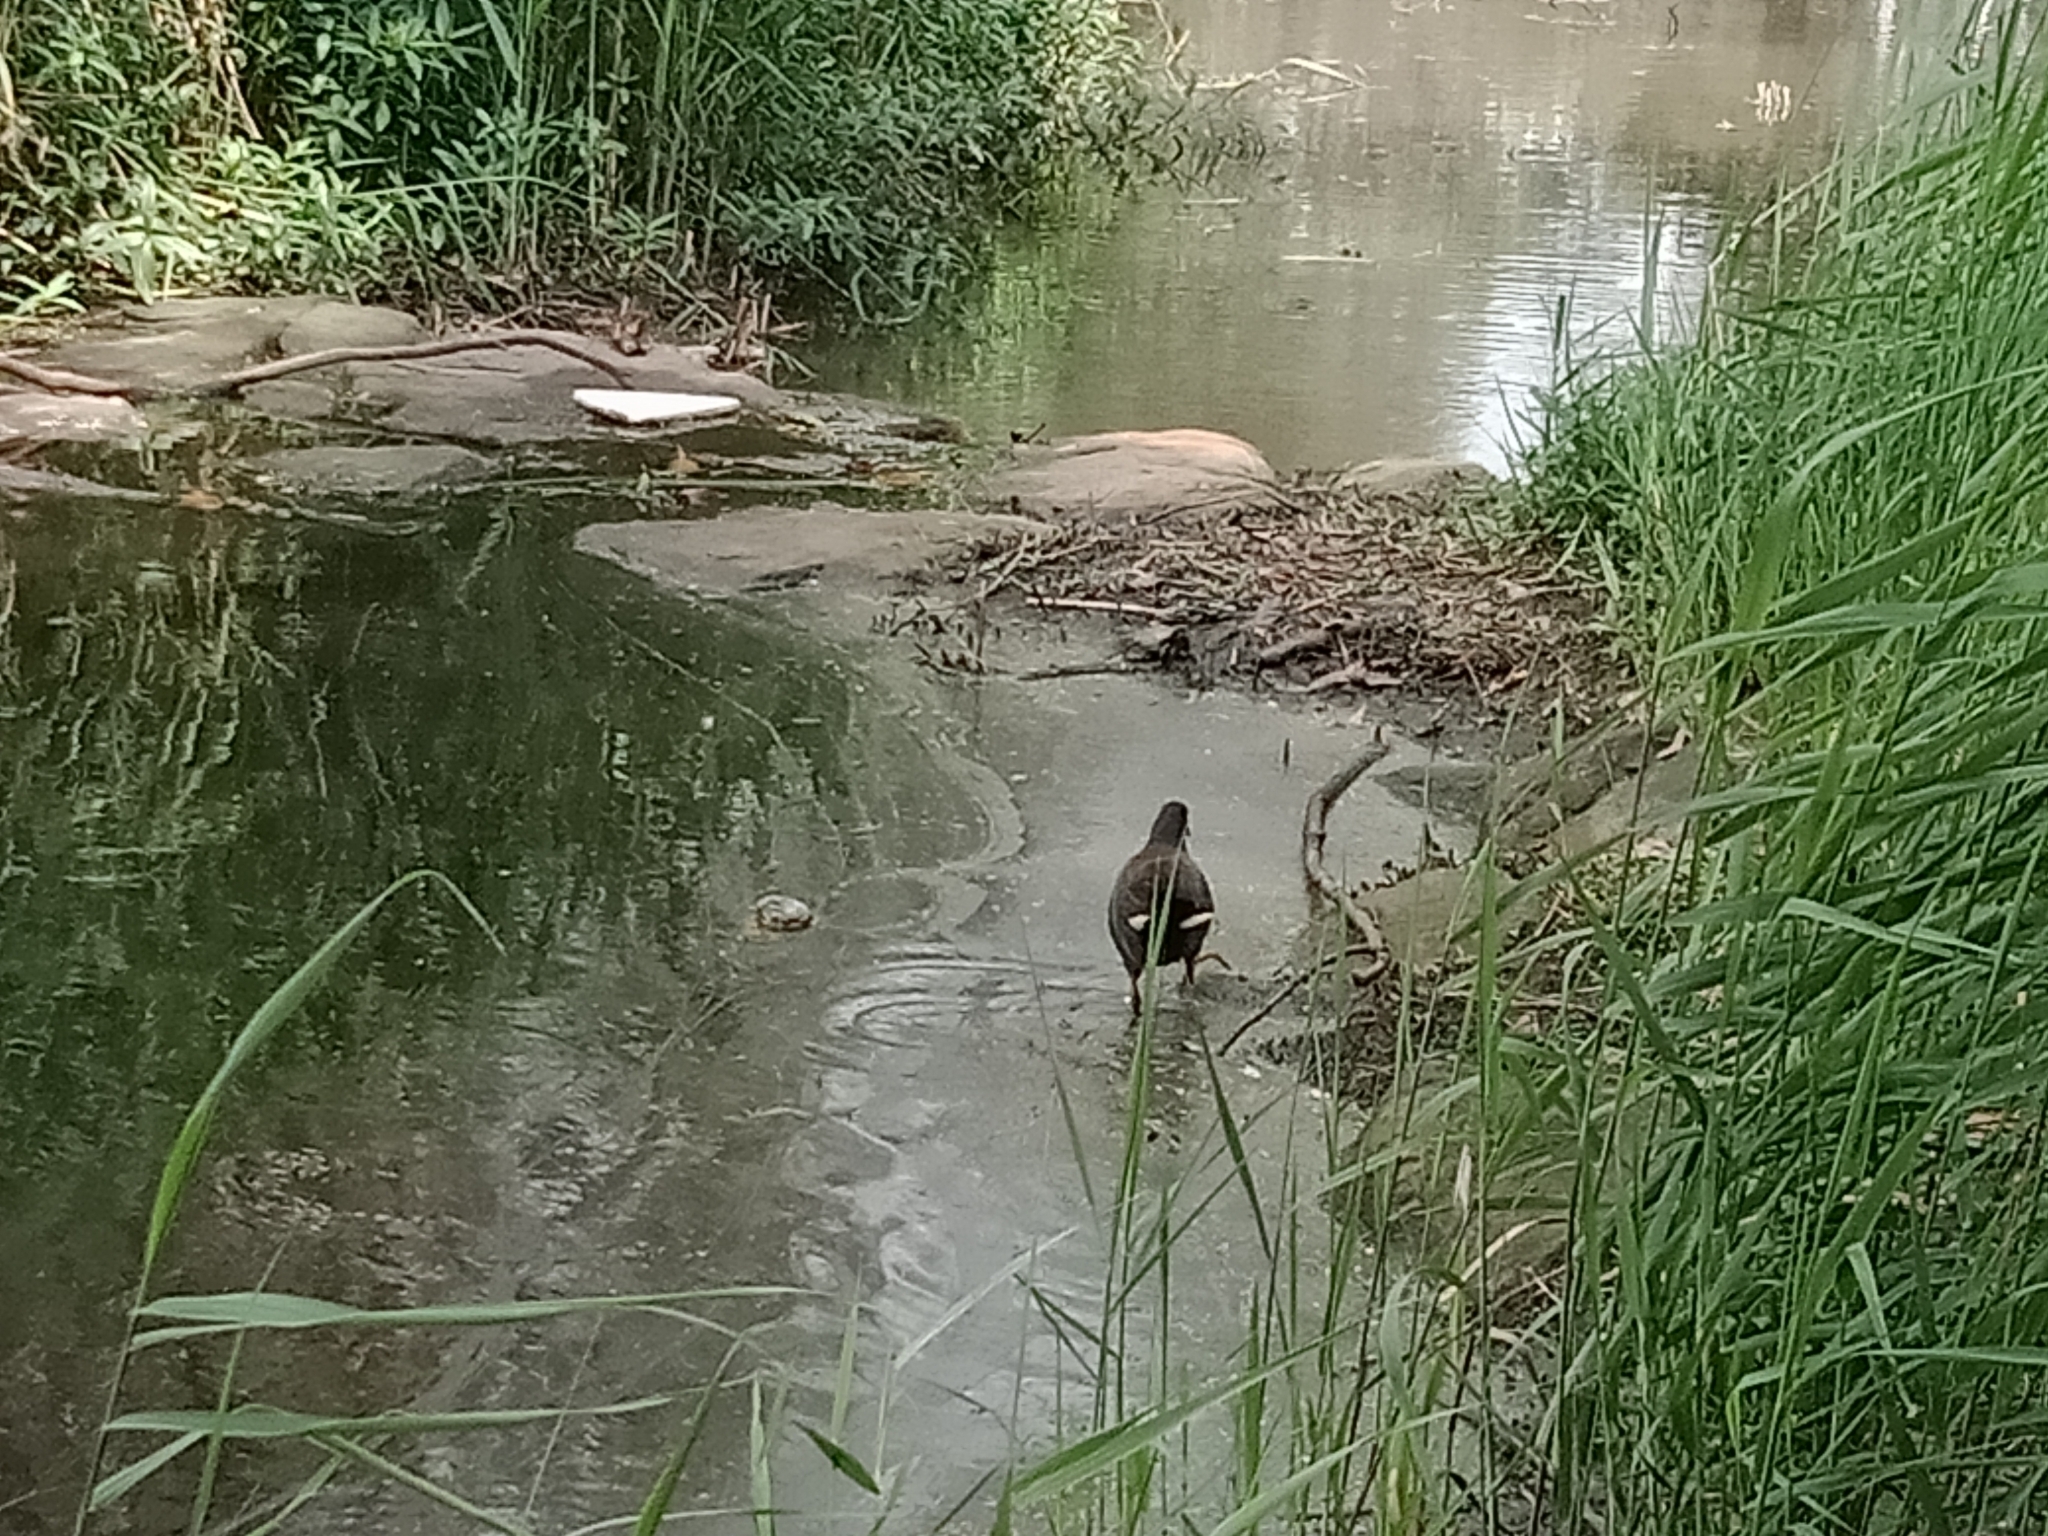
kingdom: Animalia
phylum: Chordata
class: Aves
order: Gruiformes
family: Rallidae
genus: Gallinula
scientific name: Gallinula tenebrosa
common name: Dusky moorhen
